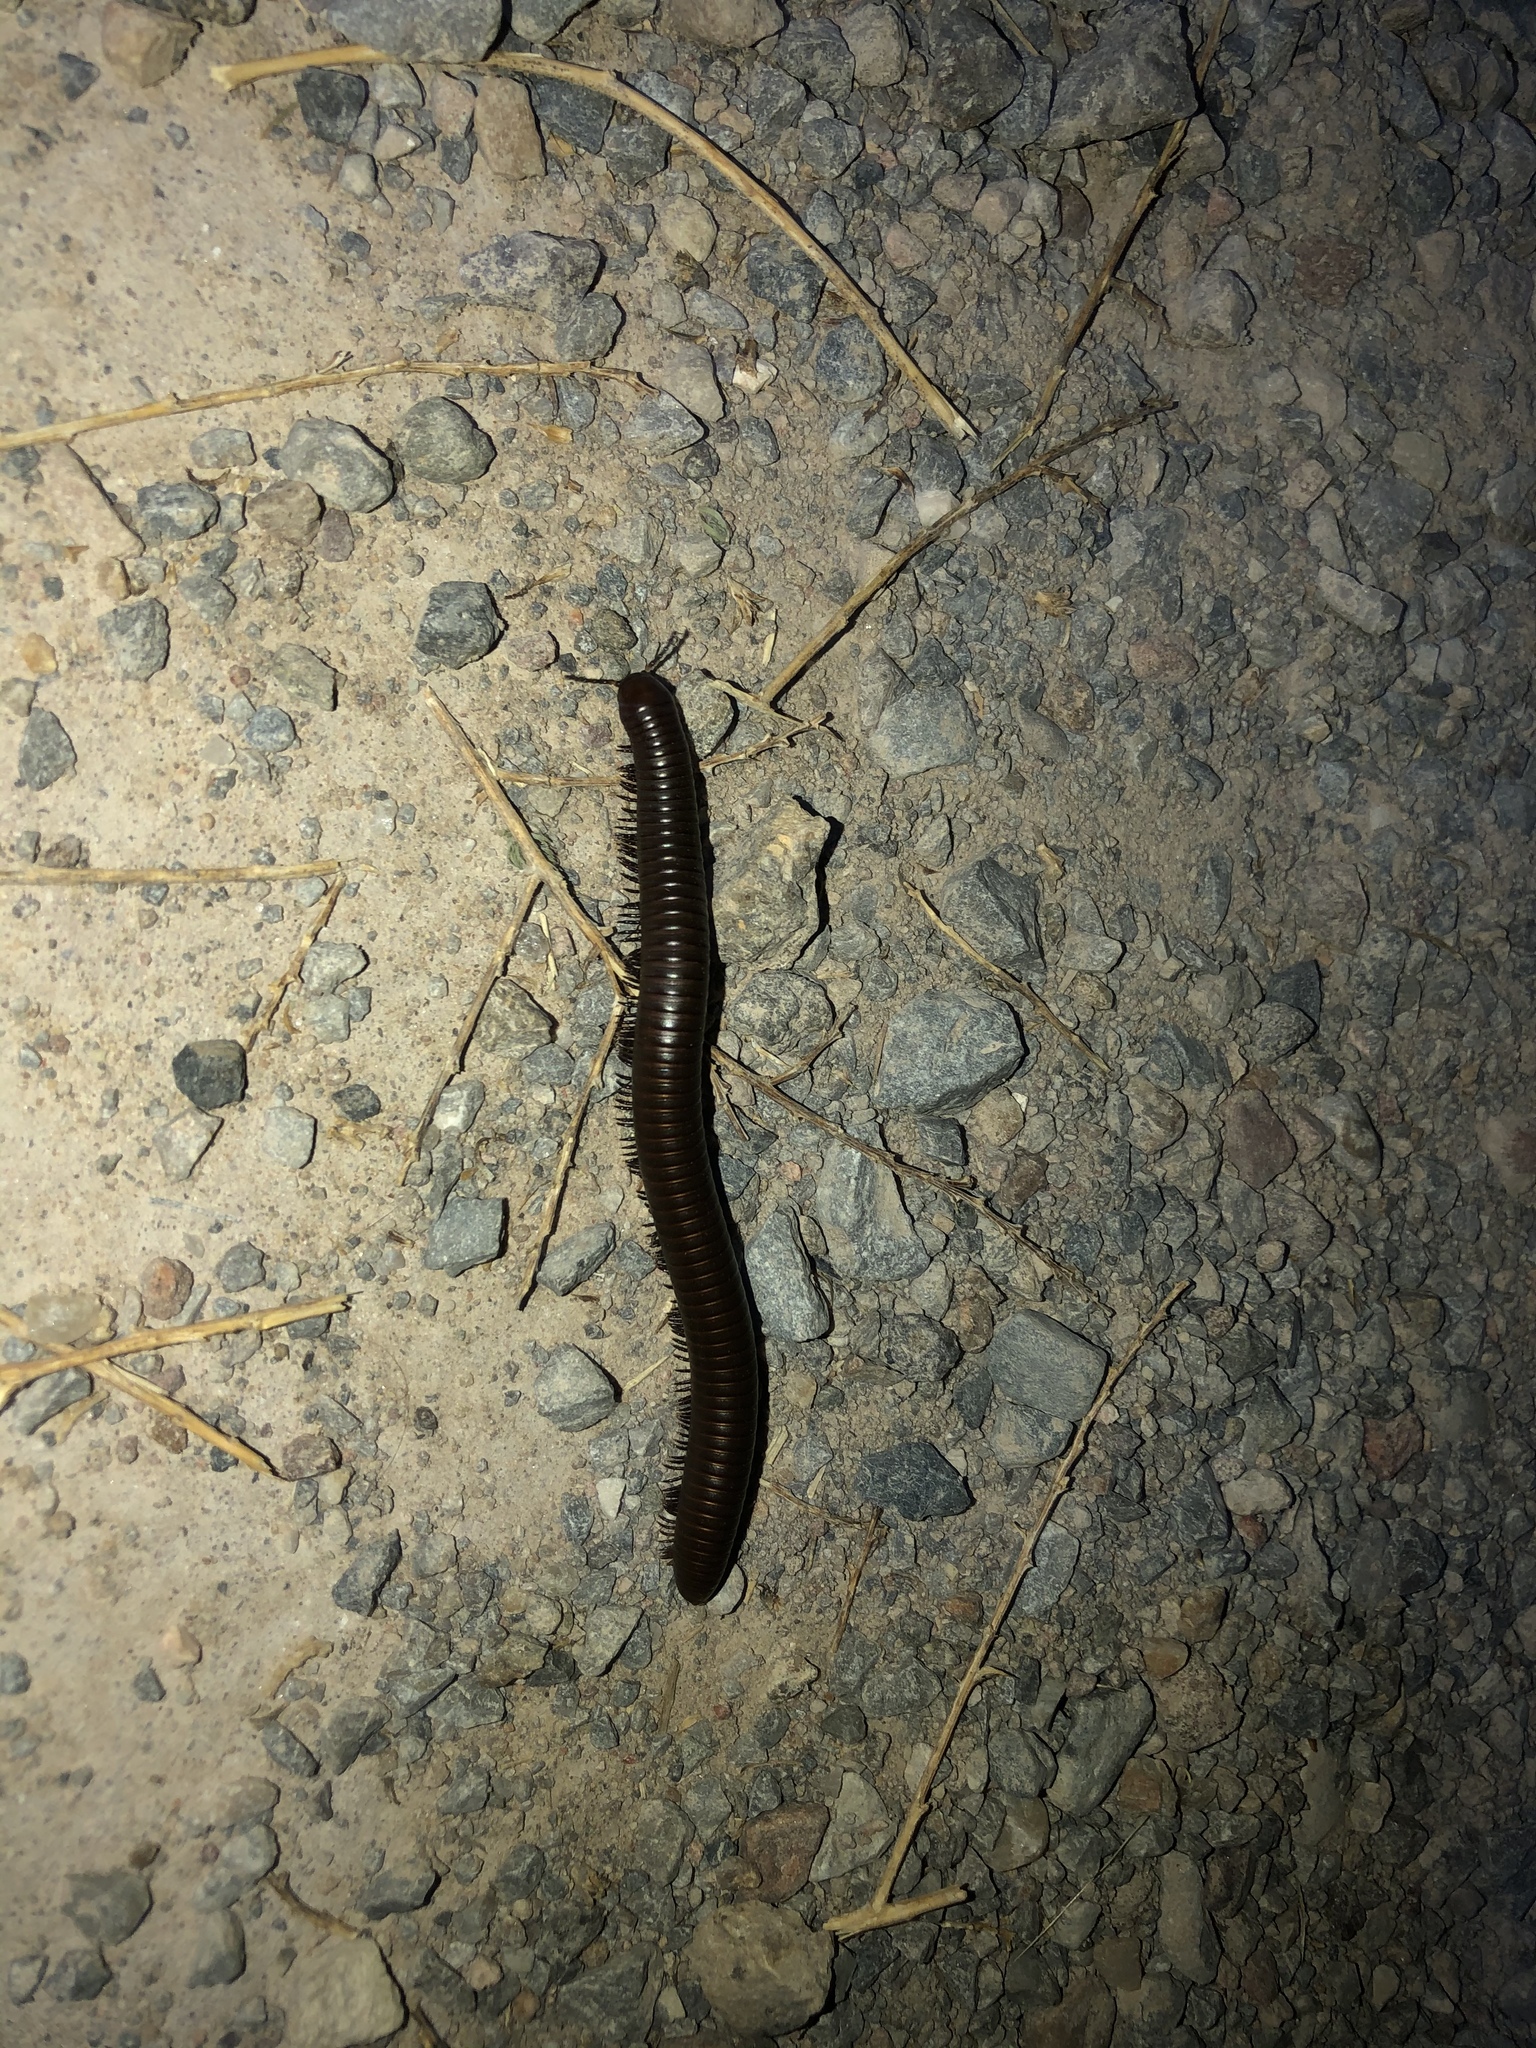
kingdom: Animalia
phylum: Arthropoda
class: Diplopoda
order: Spirostreptida
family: Spirostreptidae
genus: Orthoporus
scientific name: Orthoporus ornatus
